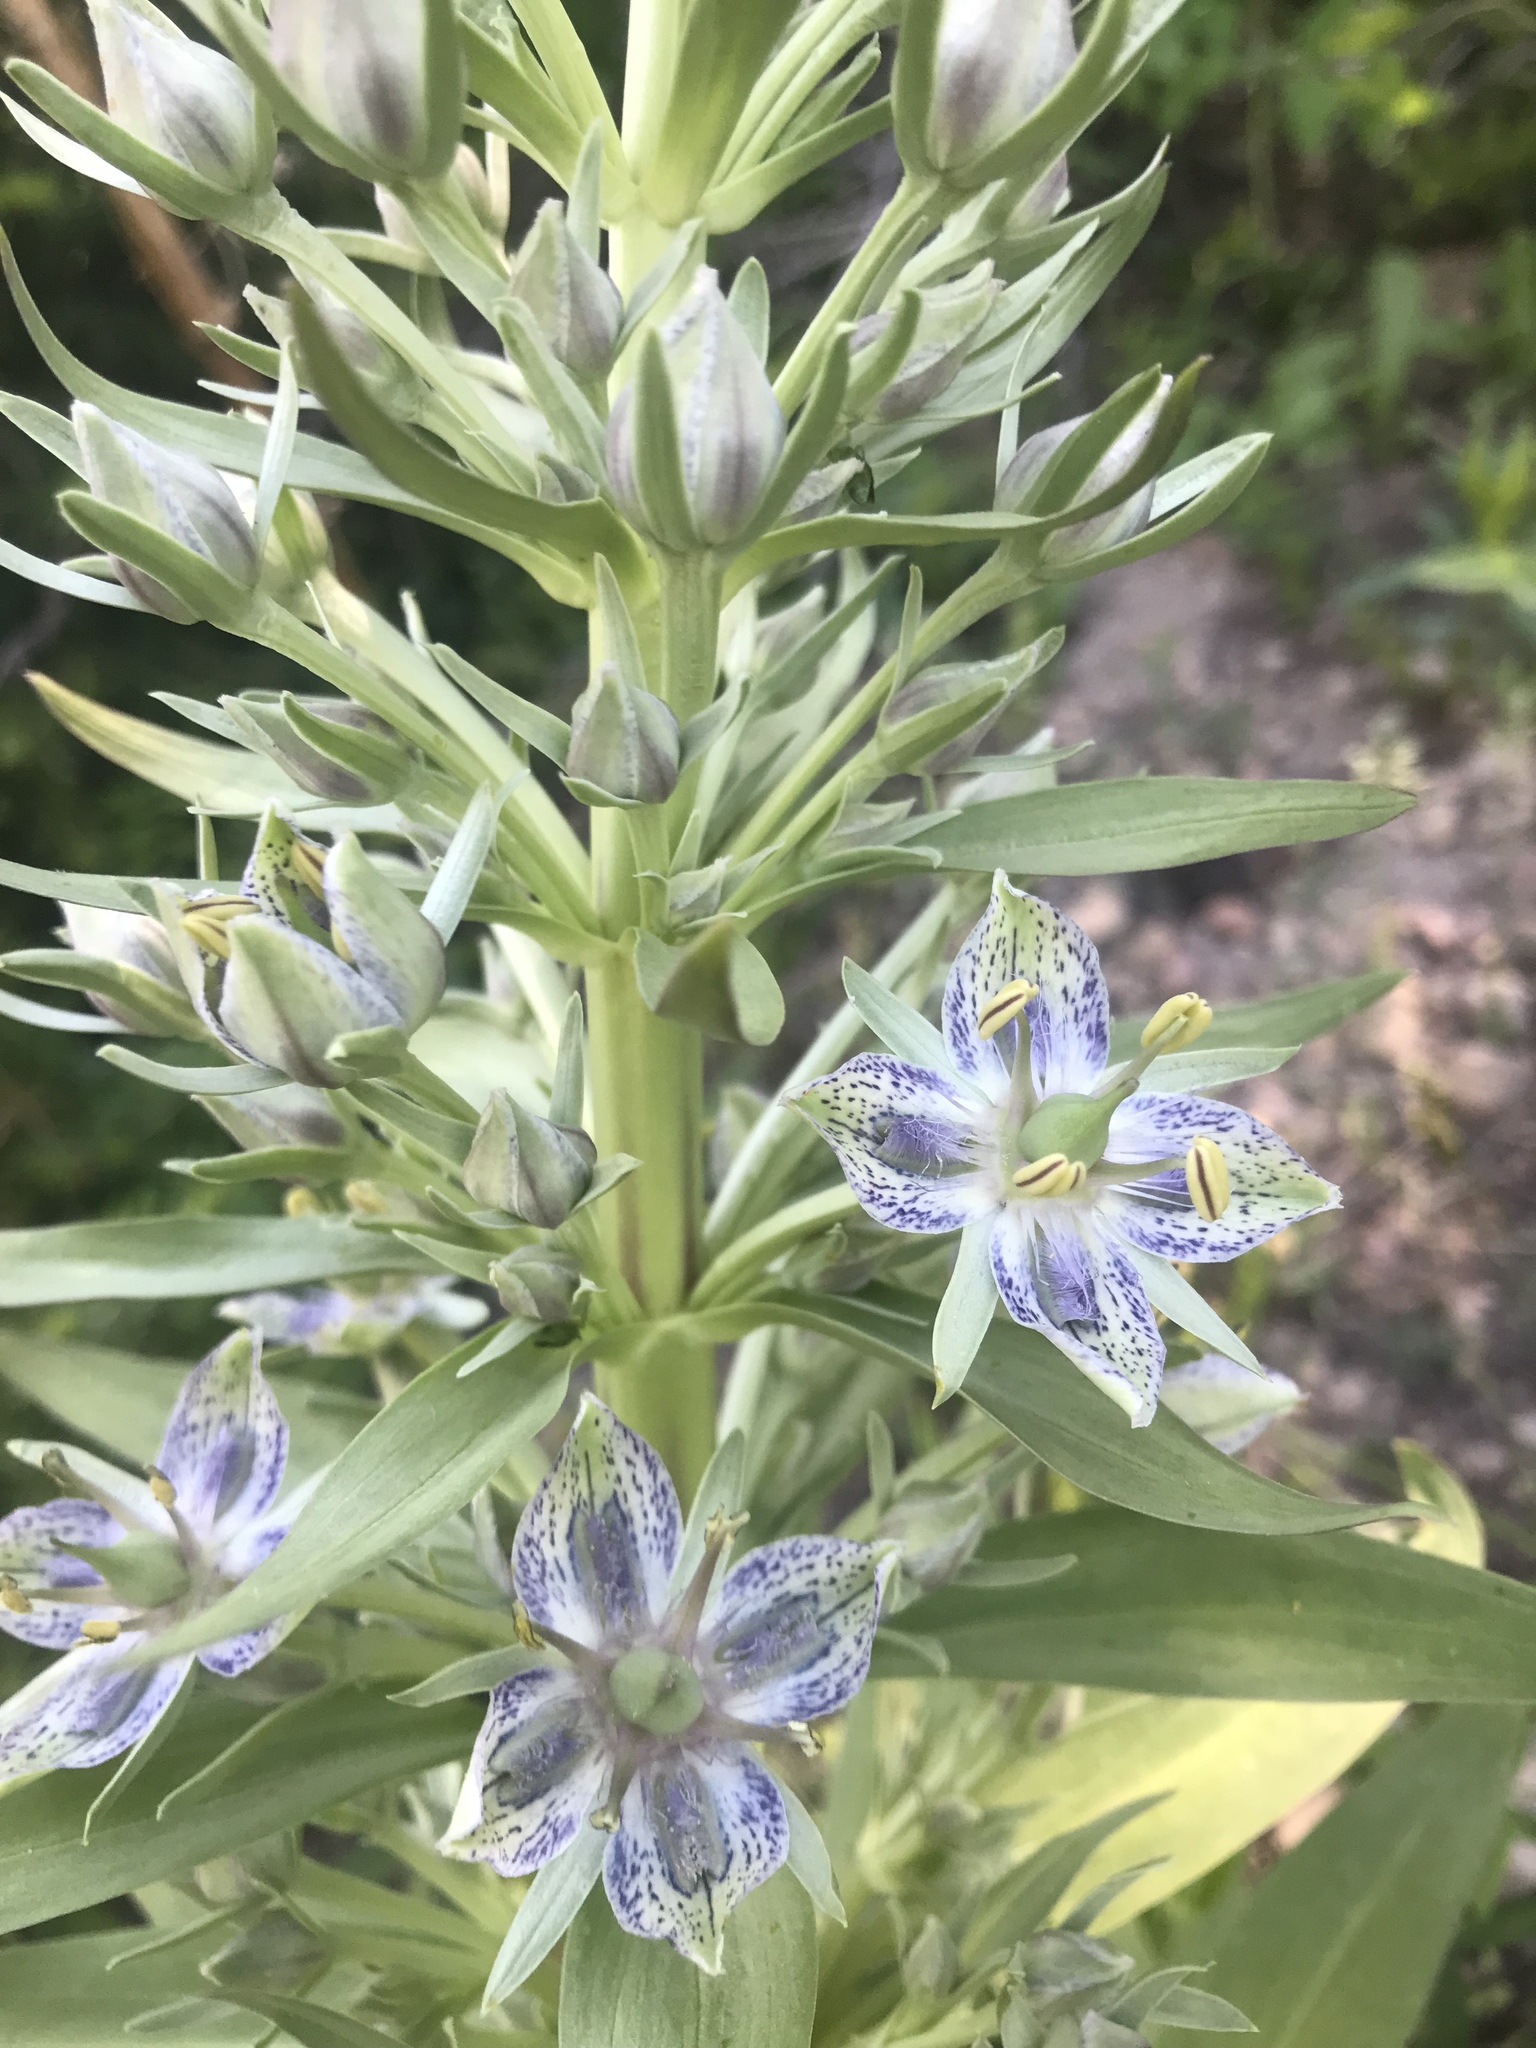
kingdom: Plantae
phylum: Tracheophyta
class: Magnoliopsida
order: Gentianales
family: Gentianaceae
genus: Frasera
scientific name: Frasera speciosa
